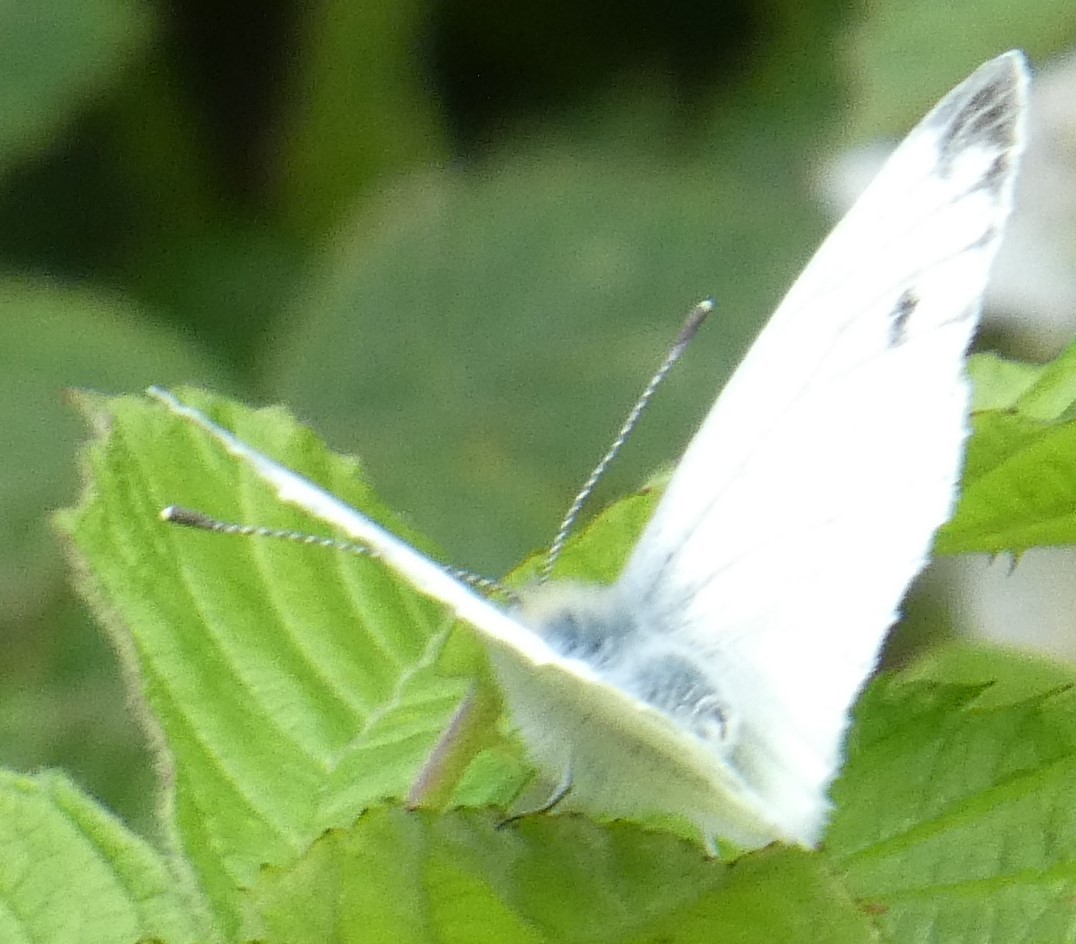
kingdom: Animalia
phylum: Arthropoda
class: Insecta
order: Lepidoptera
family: Pieridae
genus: Pieris
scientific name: Pieris napi
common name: Green-veined white
